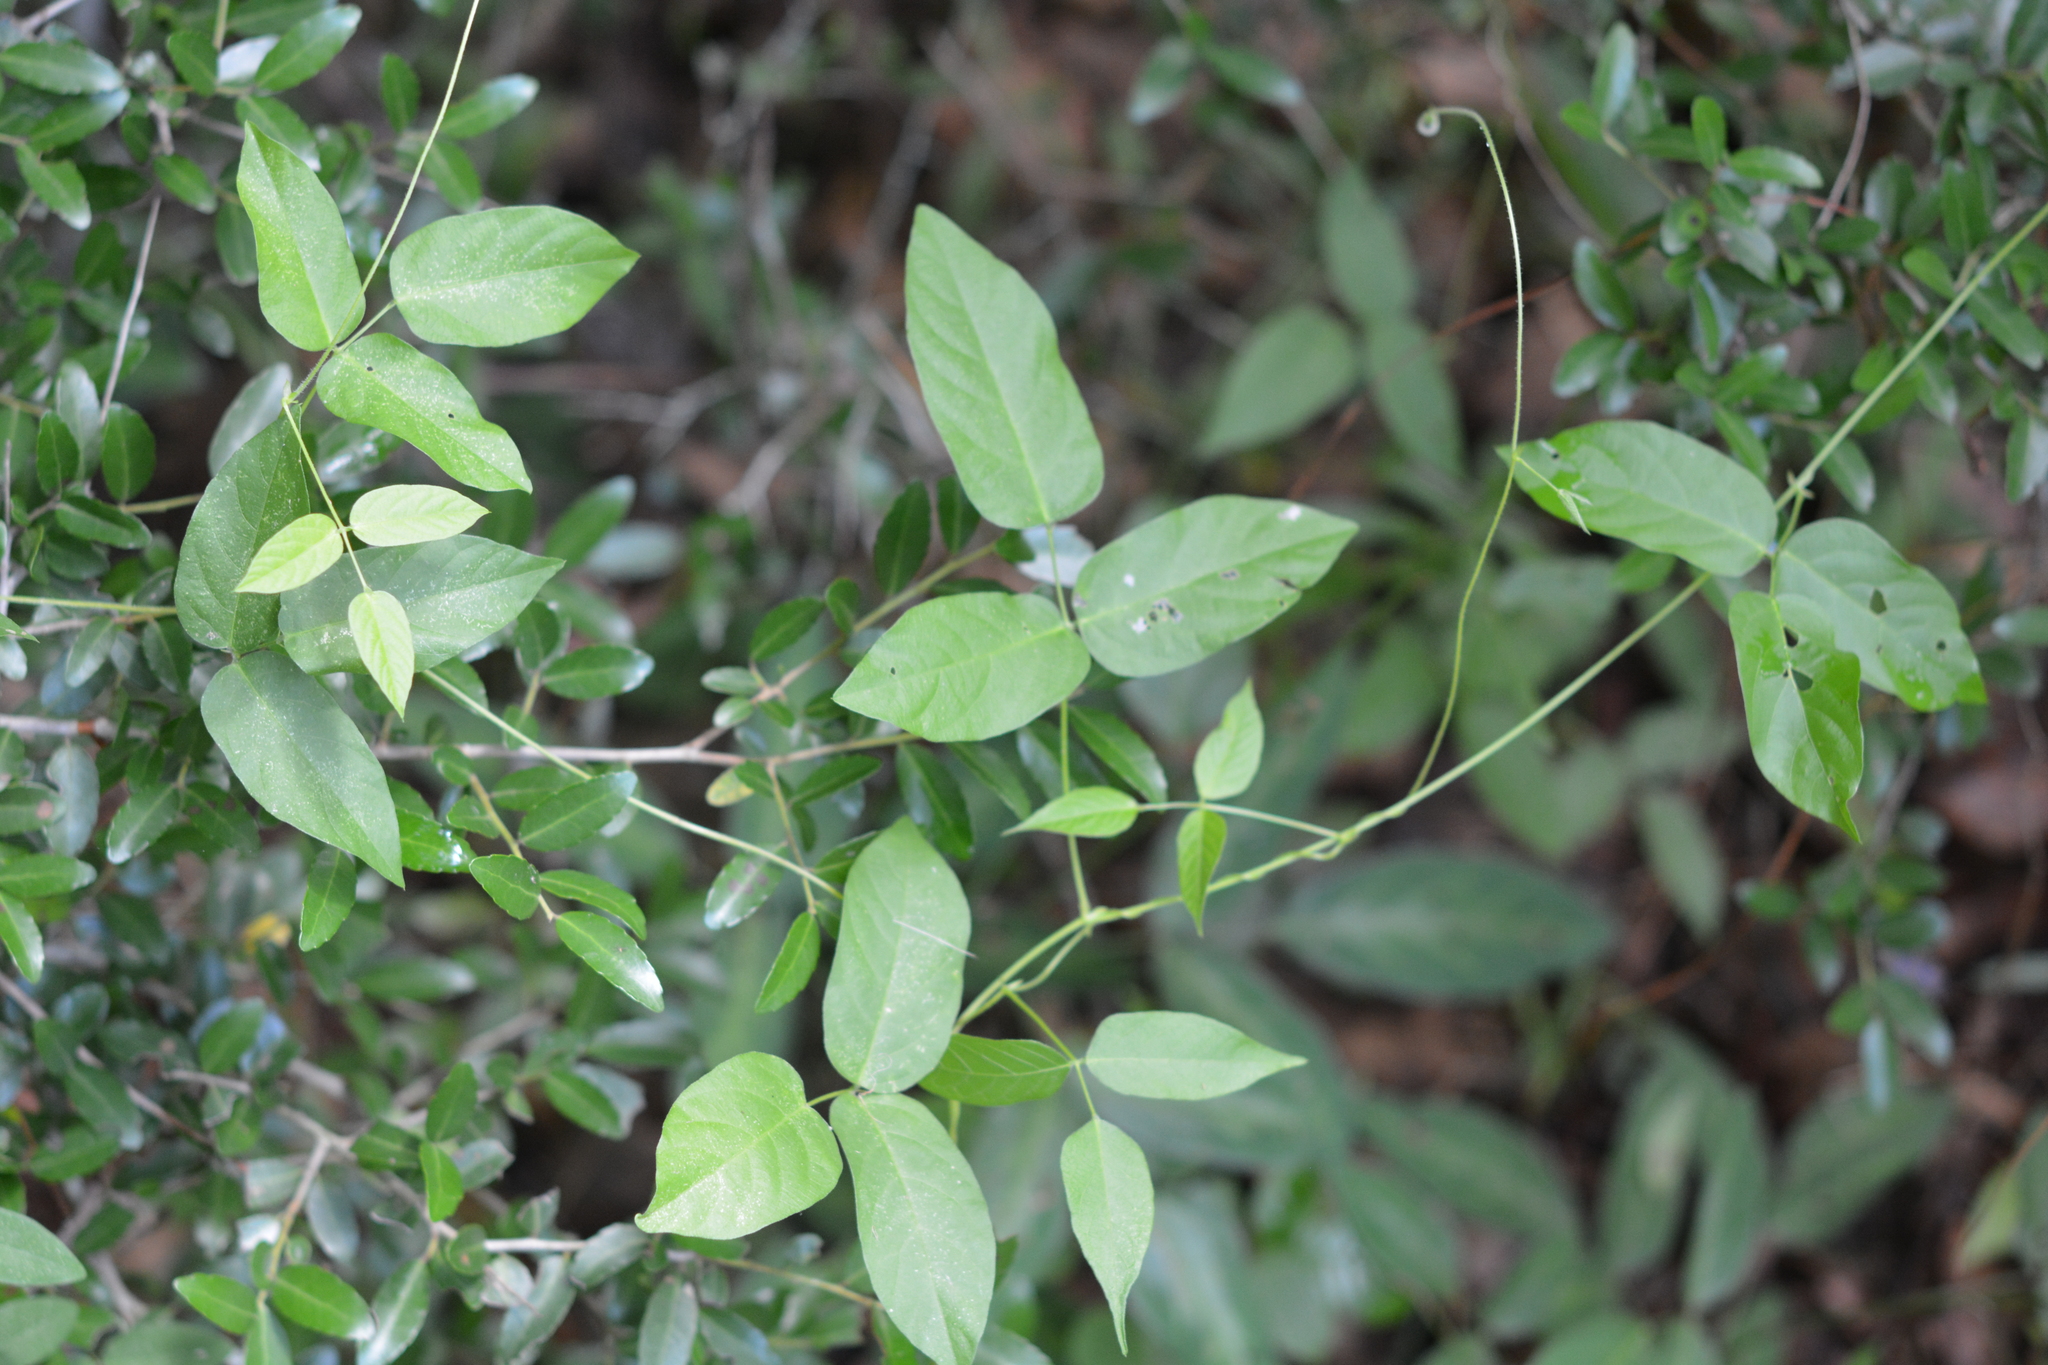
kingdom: Plantae
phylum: Tracheophyta
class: Magnoliopsida
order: Fabales
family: Fabaceae
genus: Centrosema
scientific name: Centrosema virginianum
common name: Butterfly-pea
